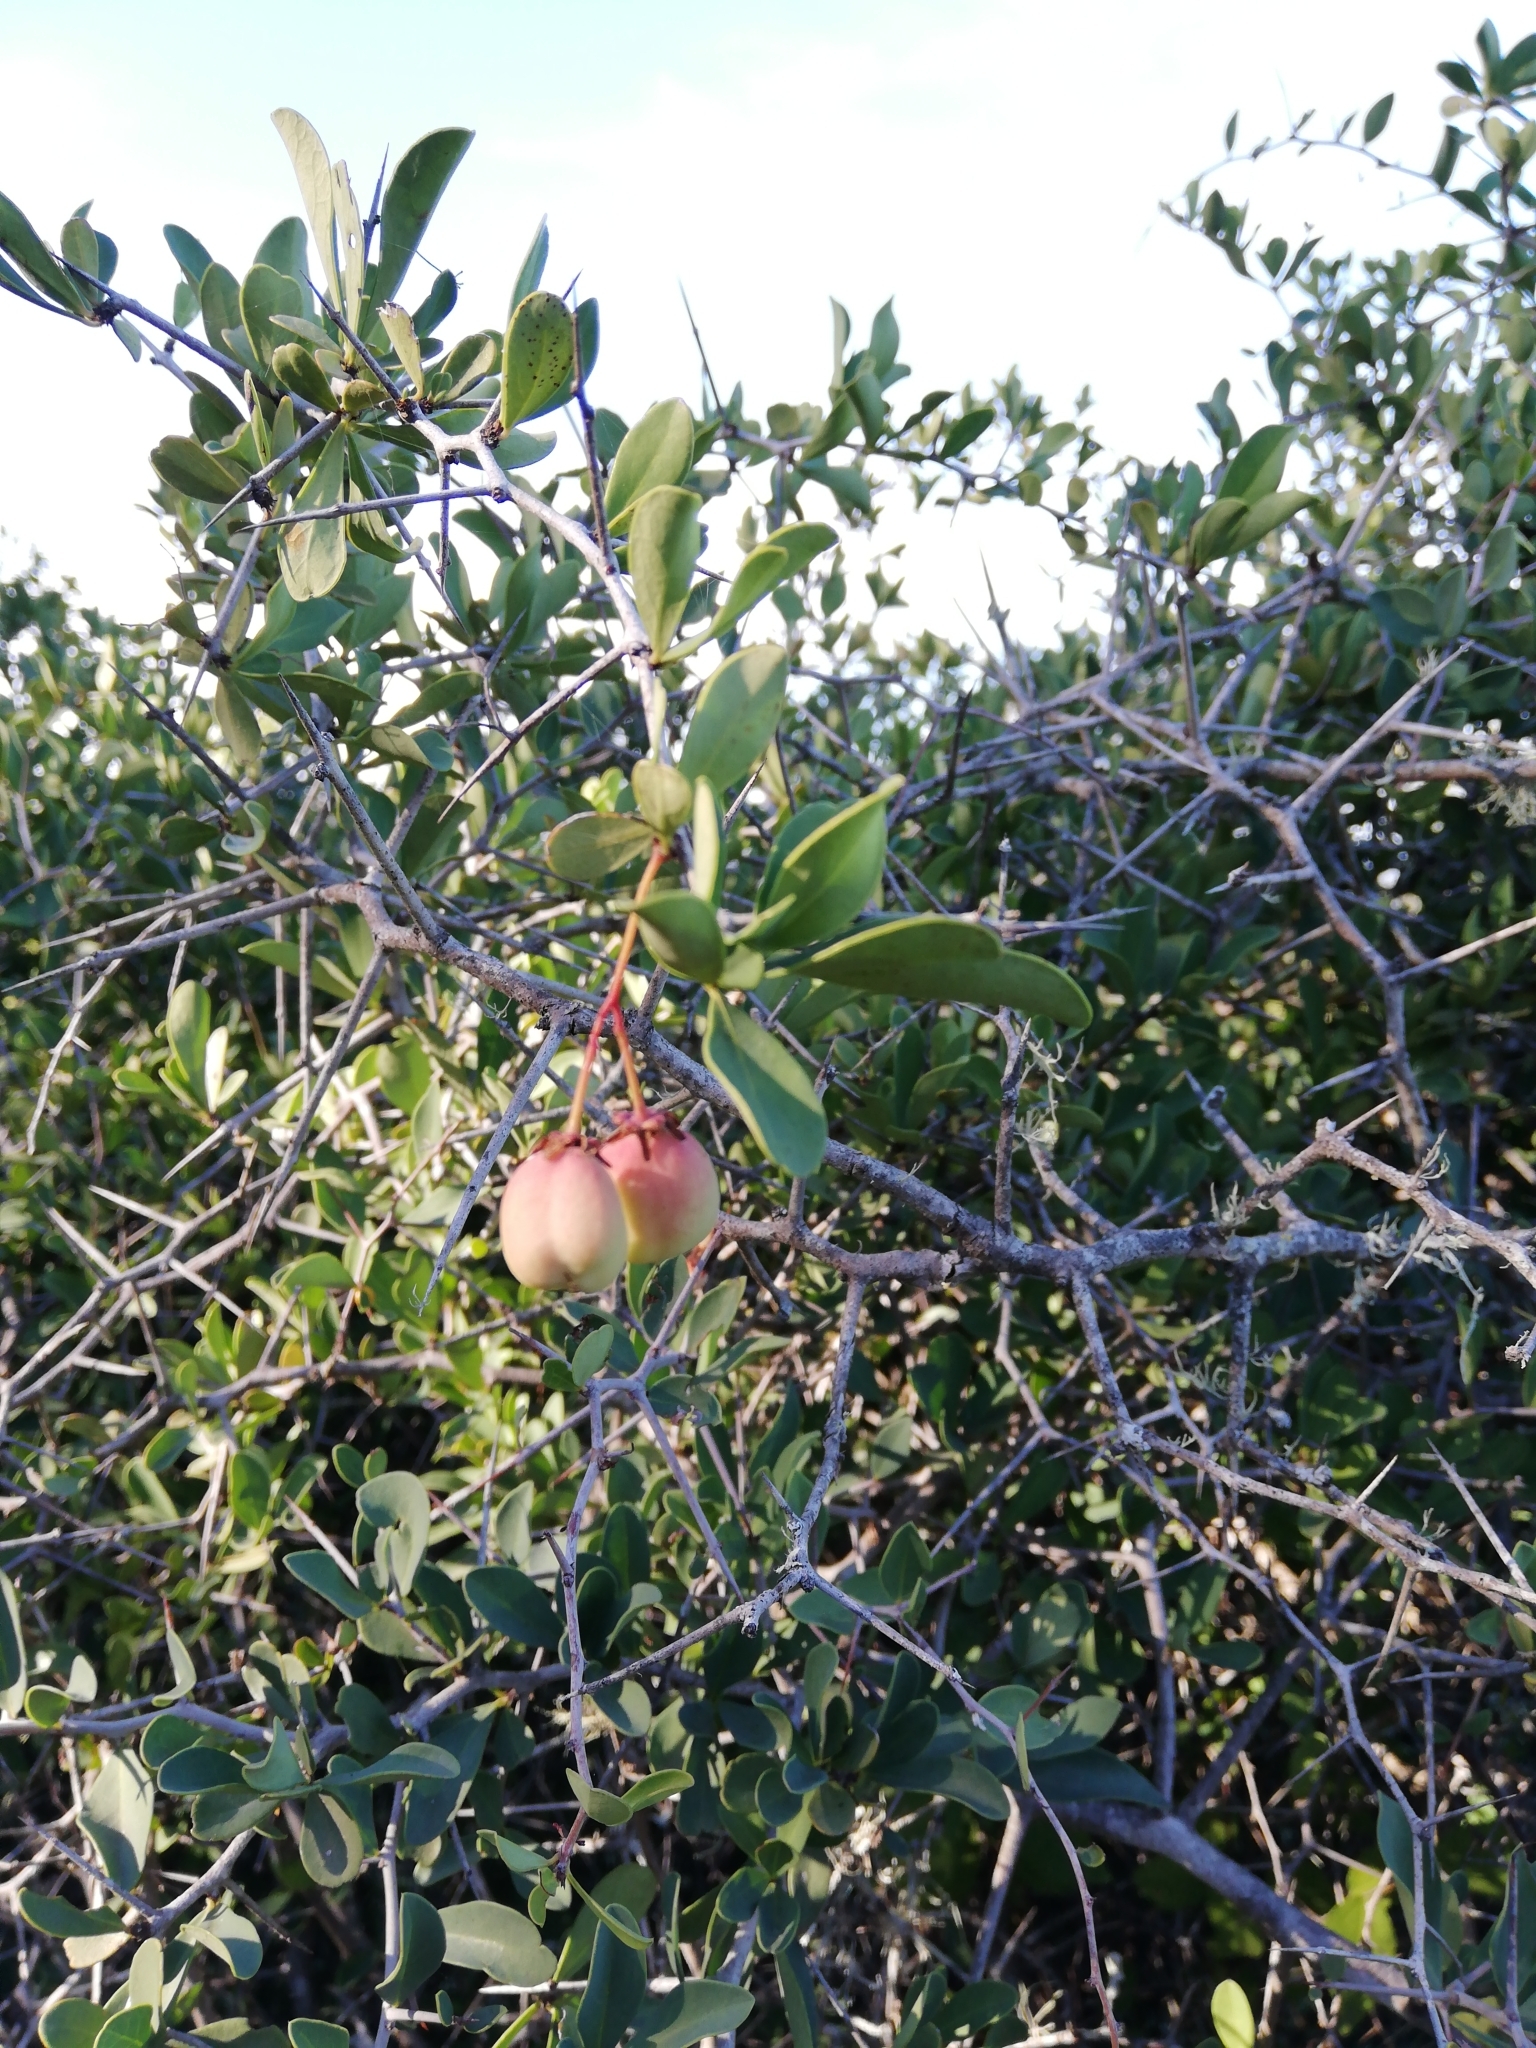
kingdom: Plantae
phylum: Tracheophyta
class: Magnoliopsida
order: Celastrales
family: Celastraceae
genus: Putterlickia
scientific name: Putterlickia pyracantha
